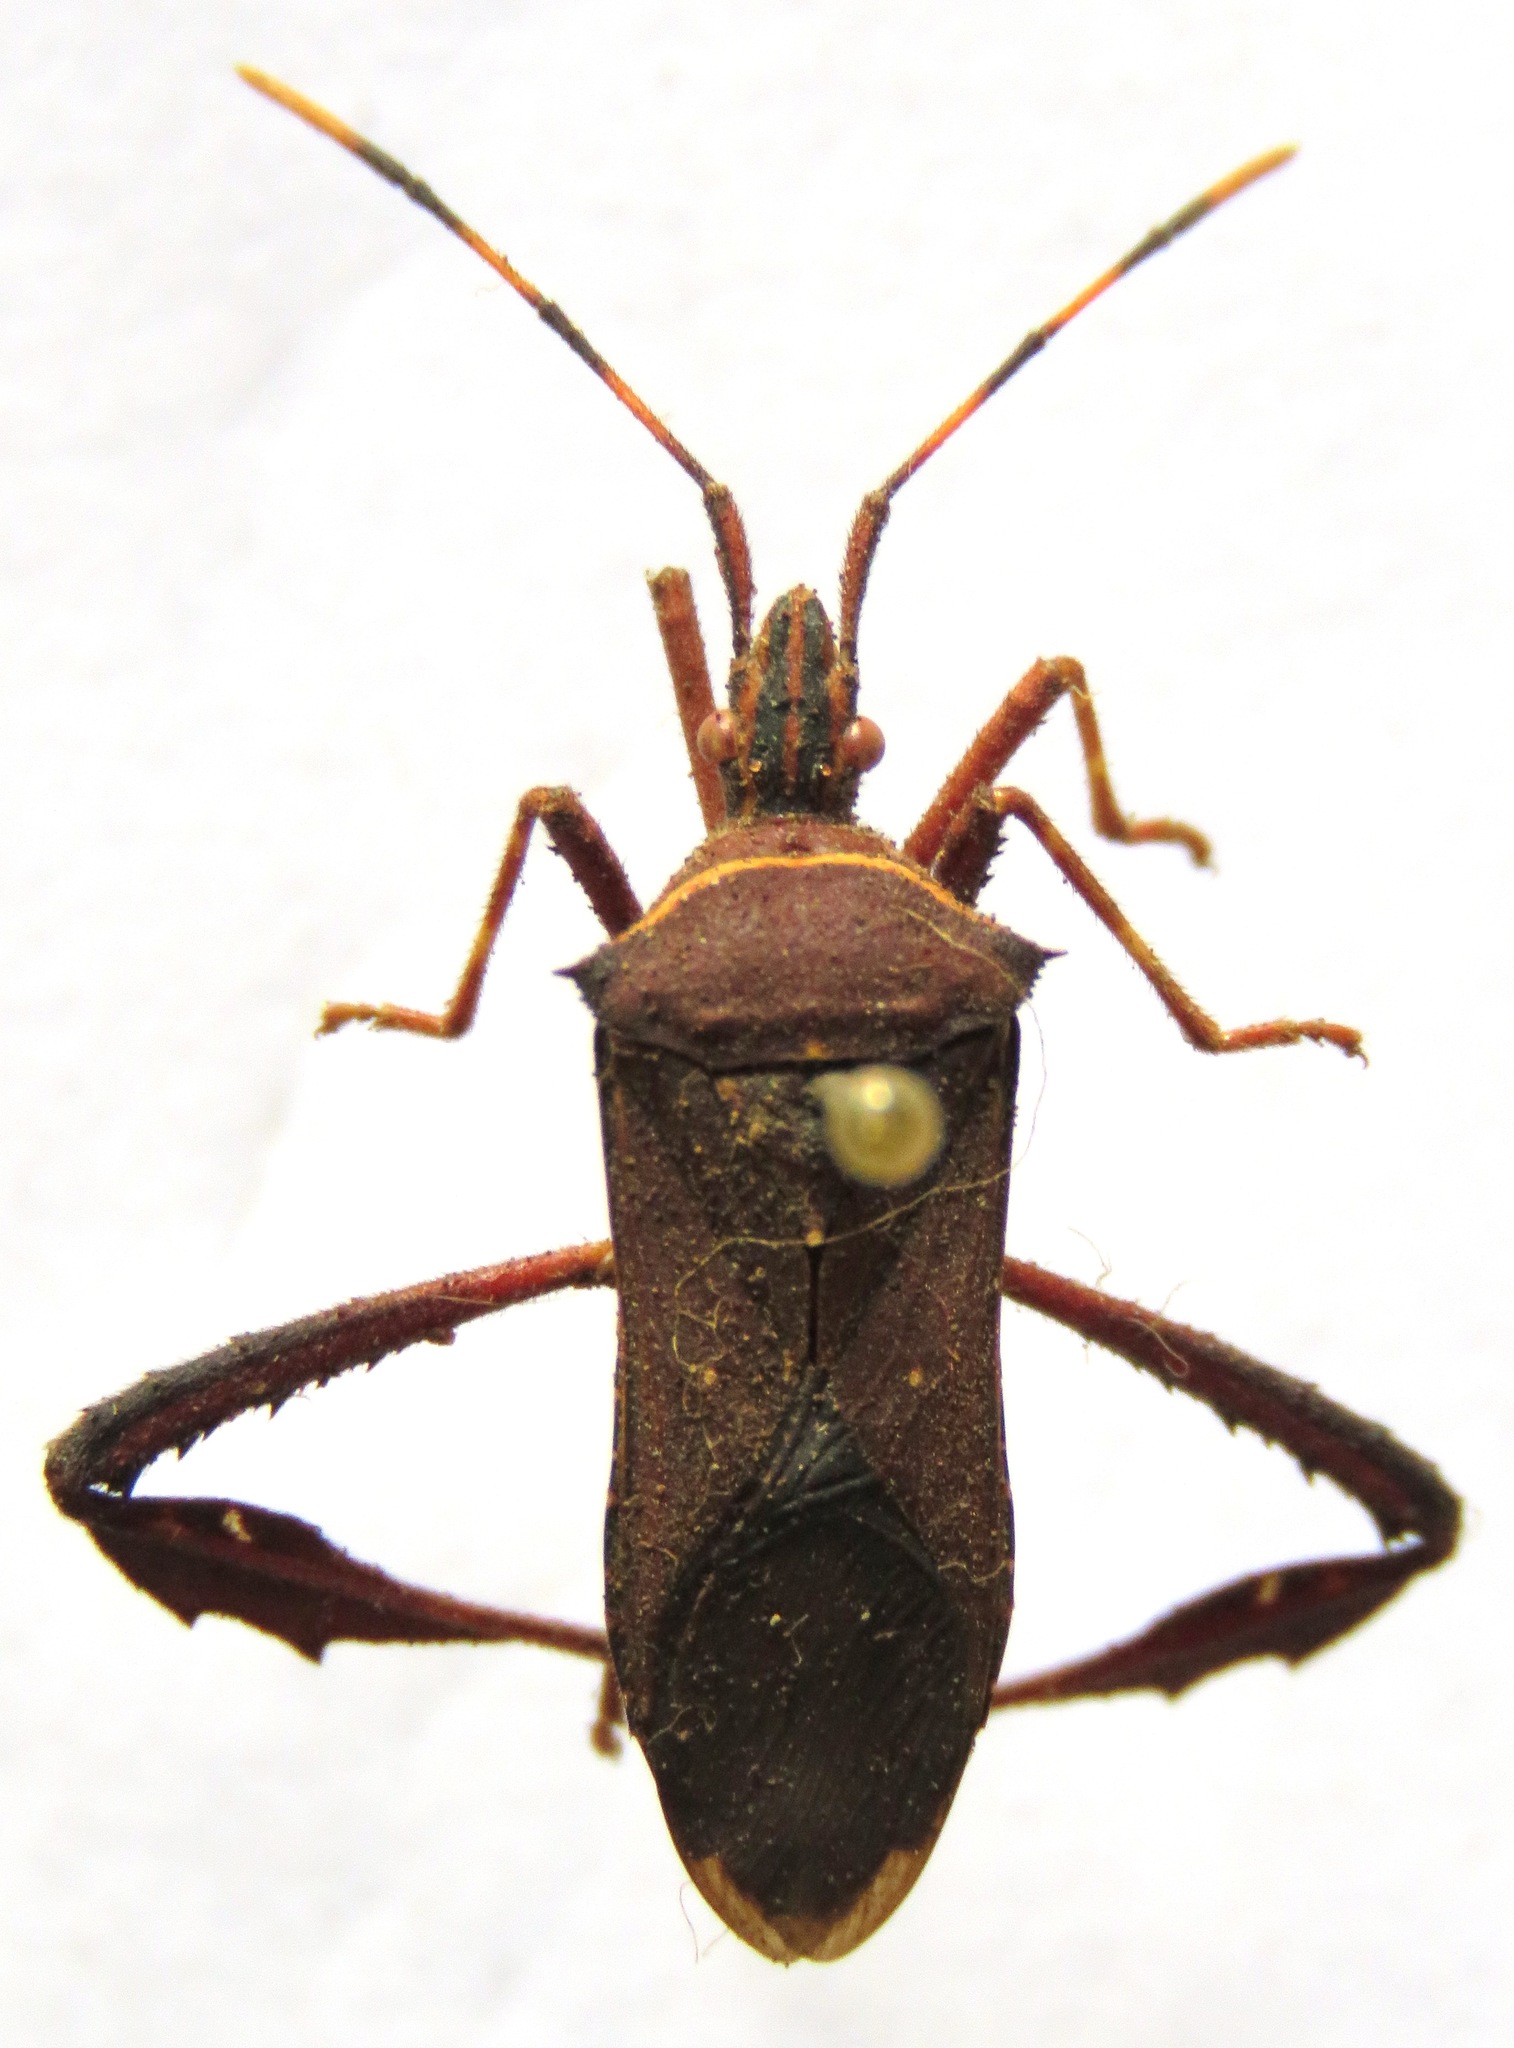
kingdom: Animalia
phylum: Arthropoda
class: Insecta
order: Hemiptera
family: Coreidae
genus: Leptoglossus
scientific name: Leptoglossus gonagra
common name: Citron bug
